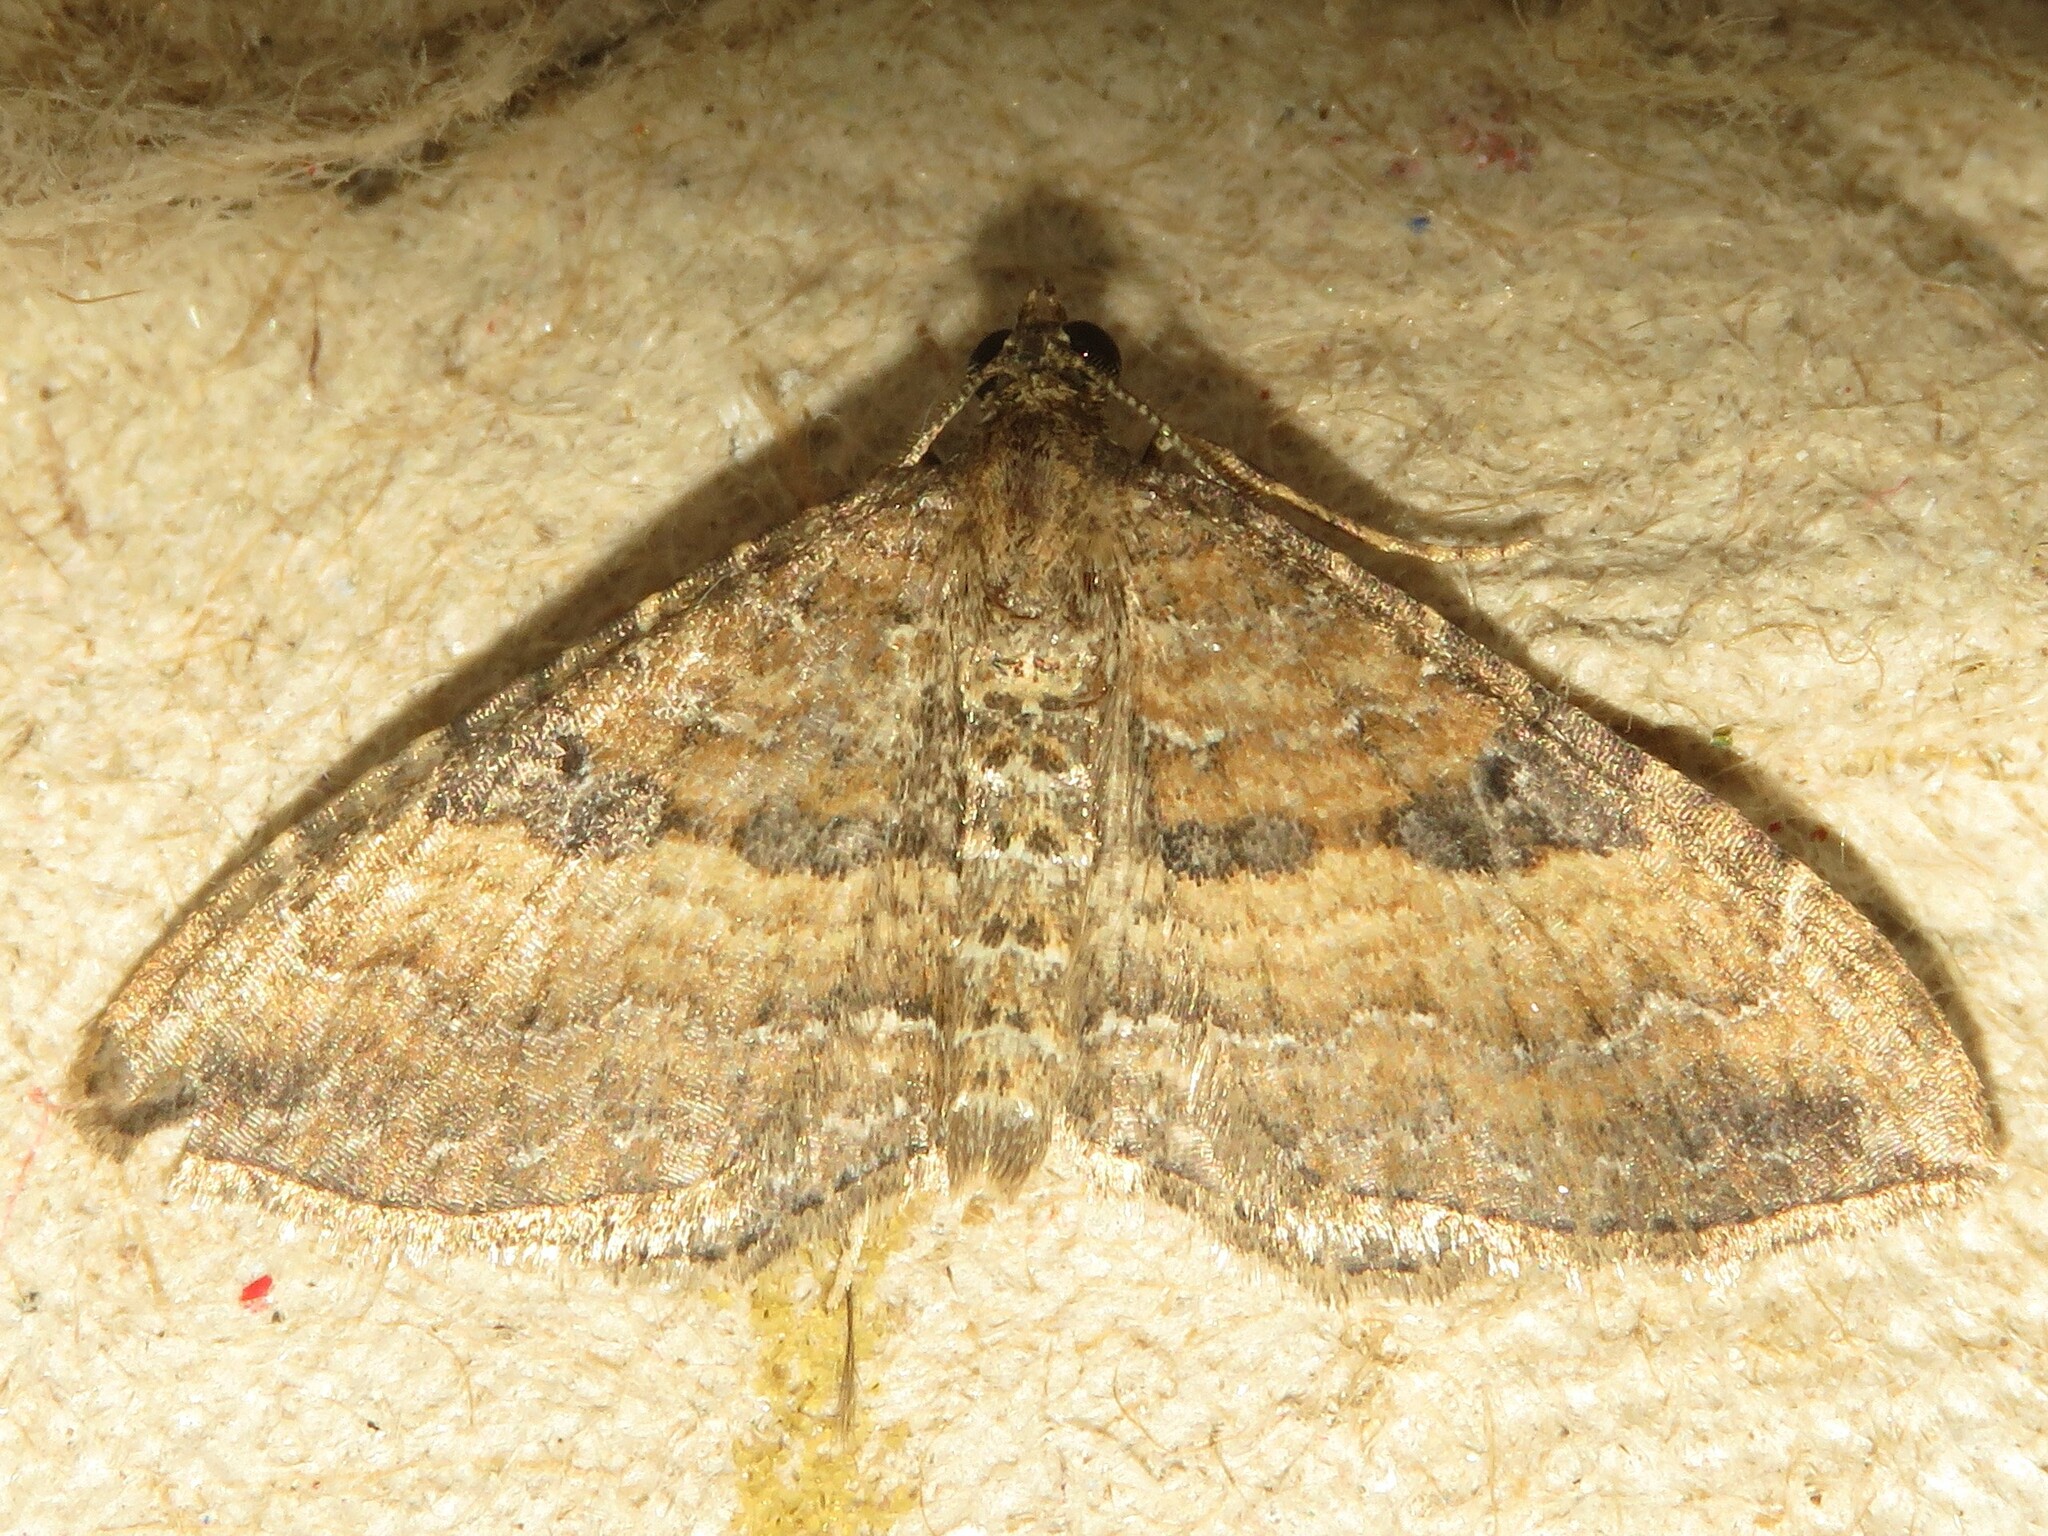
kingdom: Animalia
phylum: Arthropoda
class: Insecta
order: Lepidoptera
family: Geometridae
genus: Orthonama
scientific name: Orthonama obstipata
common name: The gem
